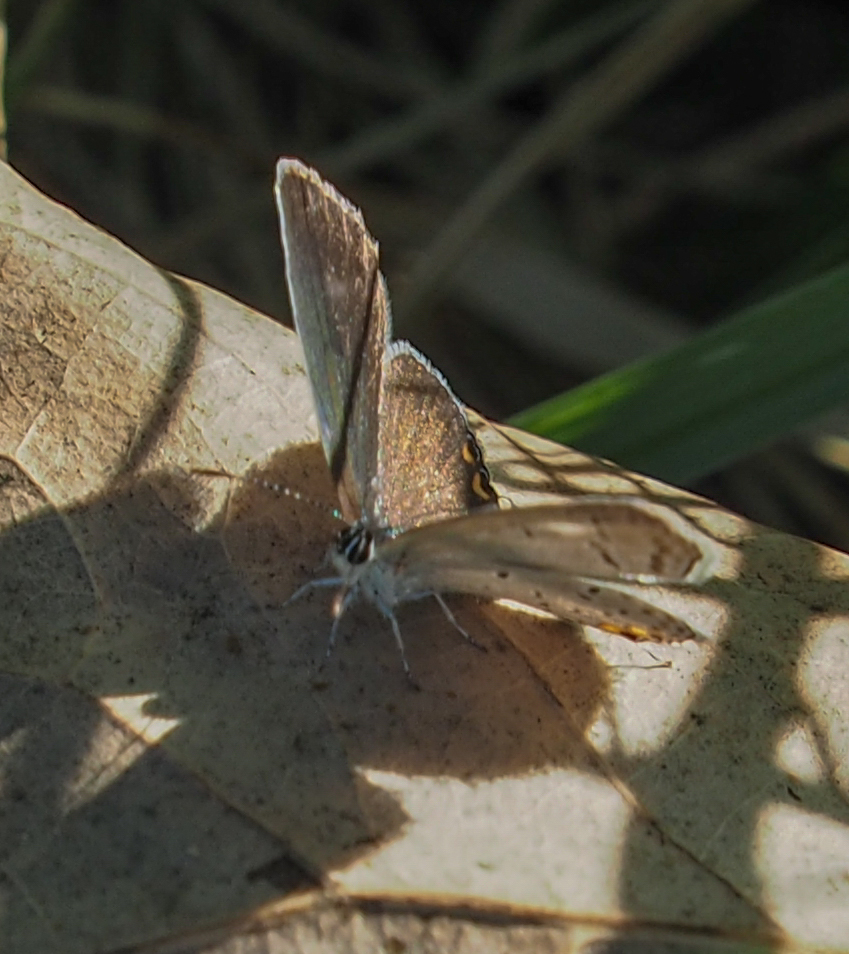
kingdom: Animalia
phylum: Arthropoda
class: Insecta
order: Lepidoptera
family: Lycaenidae
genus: Elkalyce
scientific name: Elkalyce comyntas
